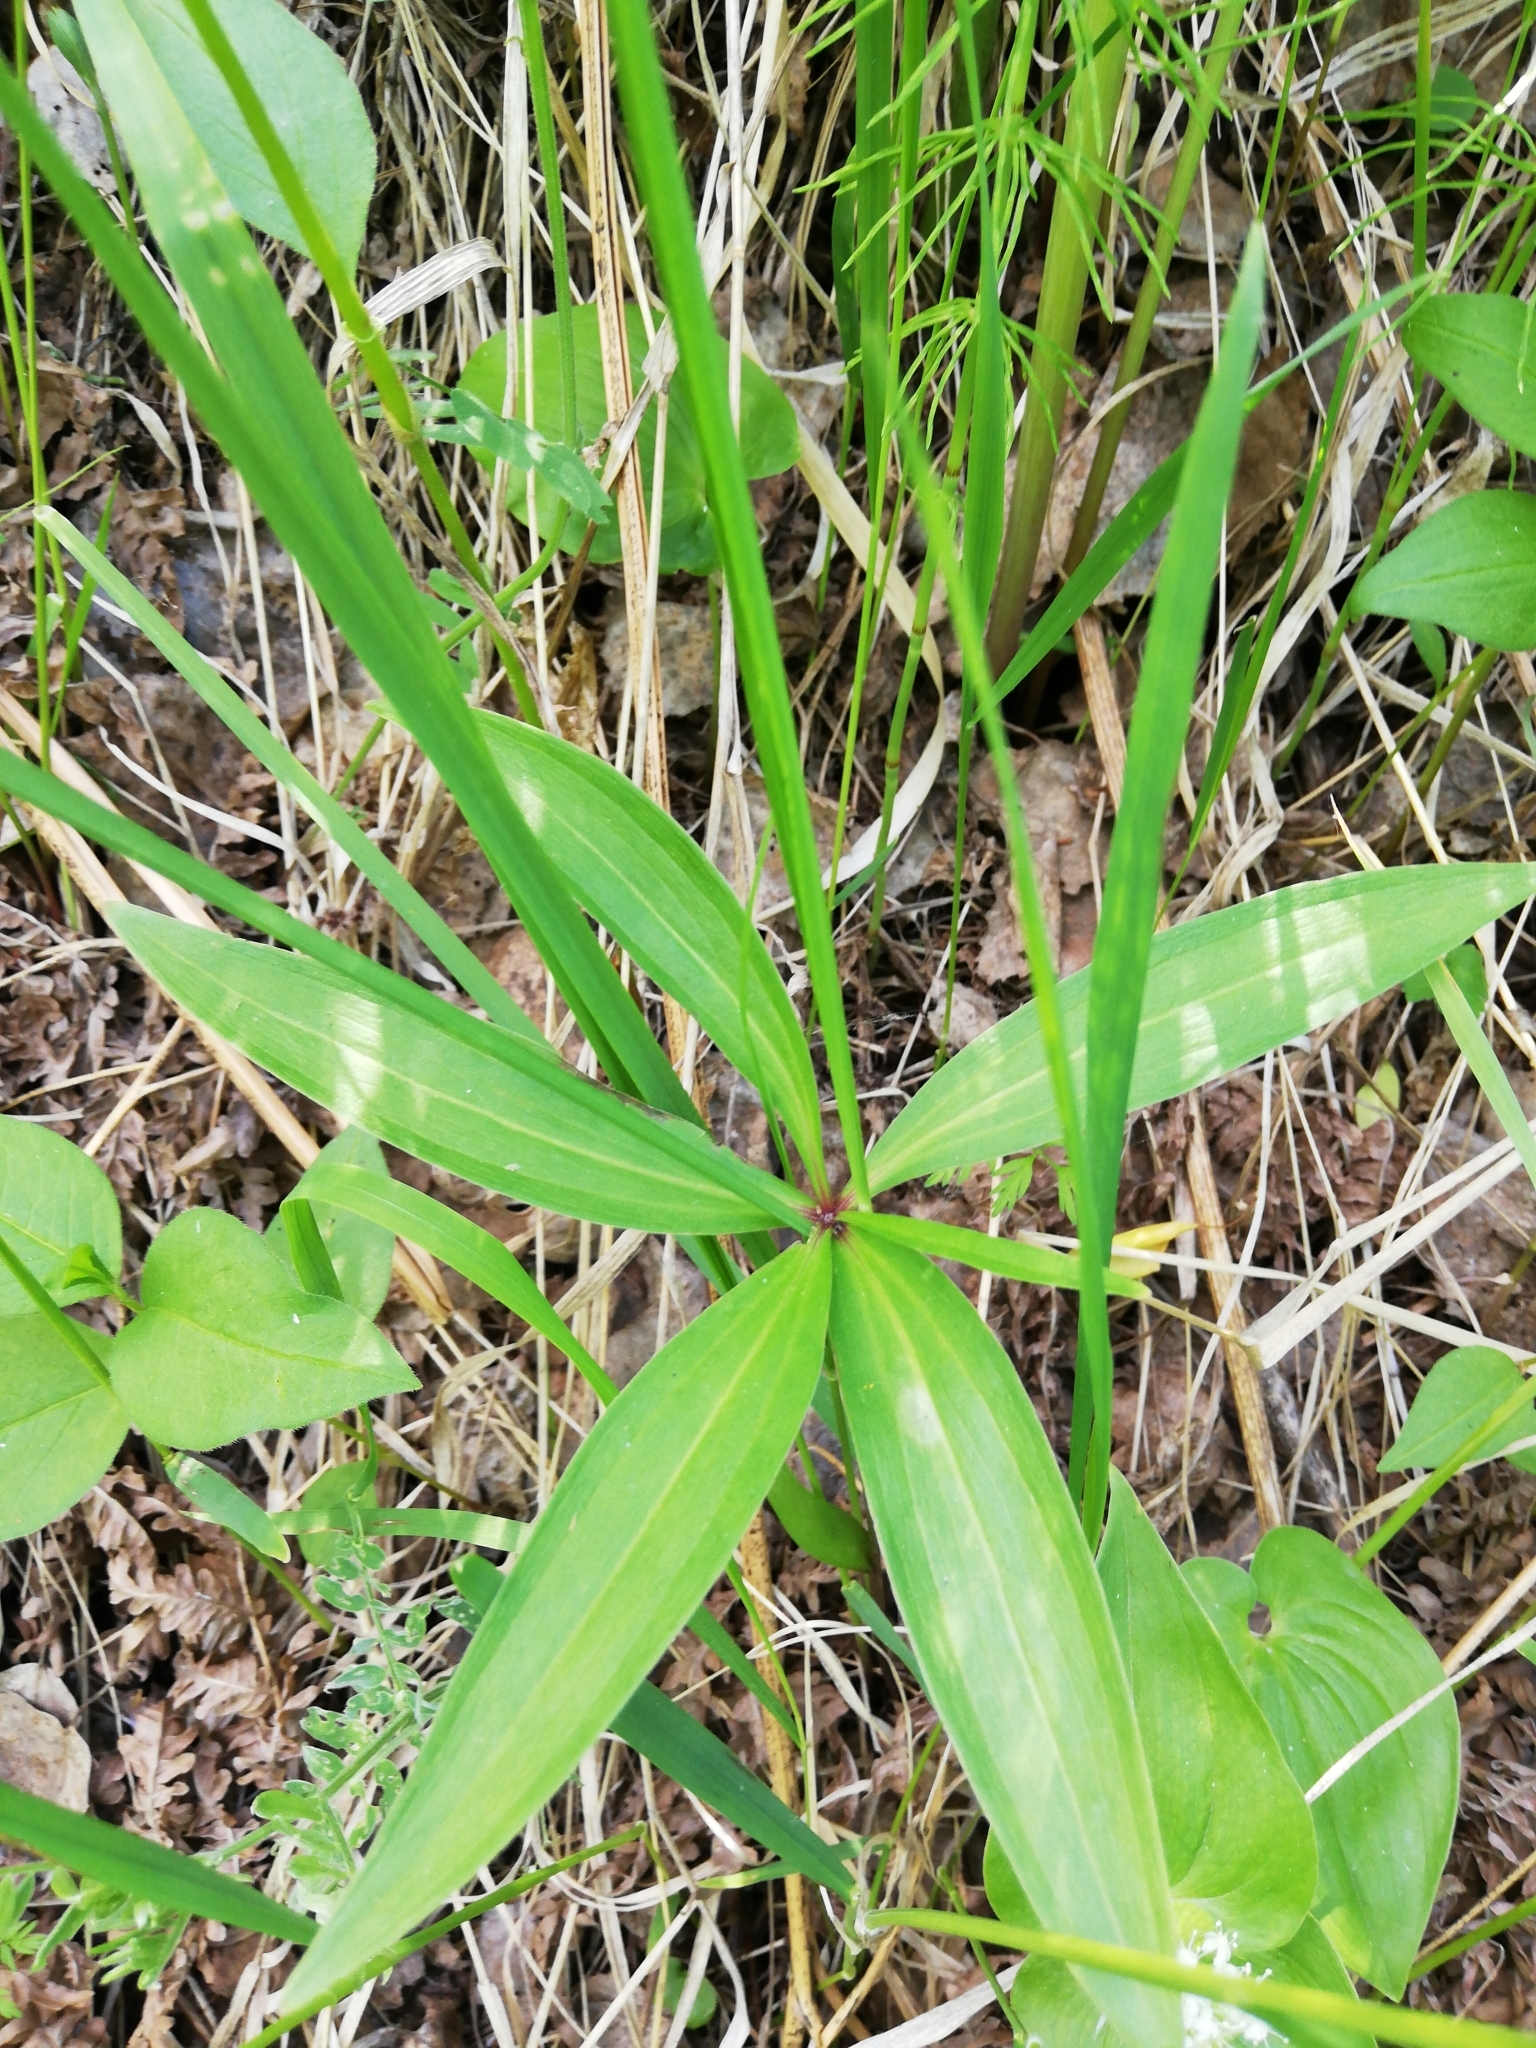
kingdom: Plantae
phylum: Tracheophyta
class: Liliopsida
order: Liliales
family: Liliaceae
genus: Lilium
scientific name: Lilium martagon
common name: Martagon lily
